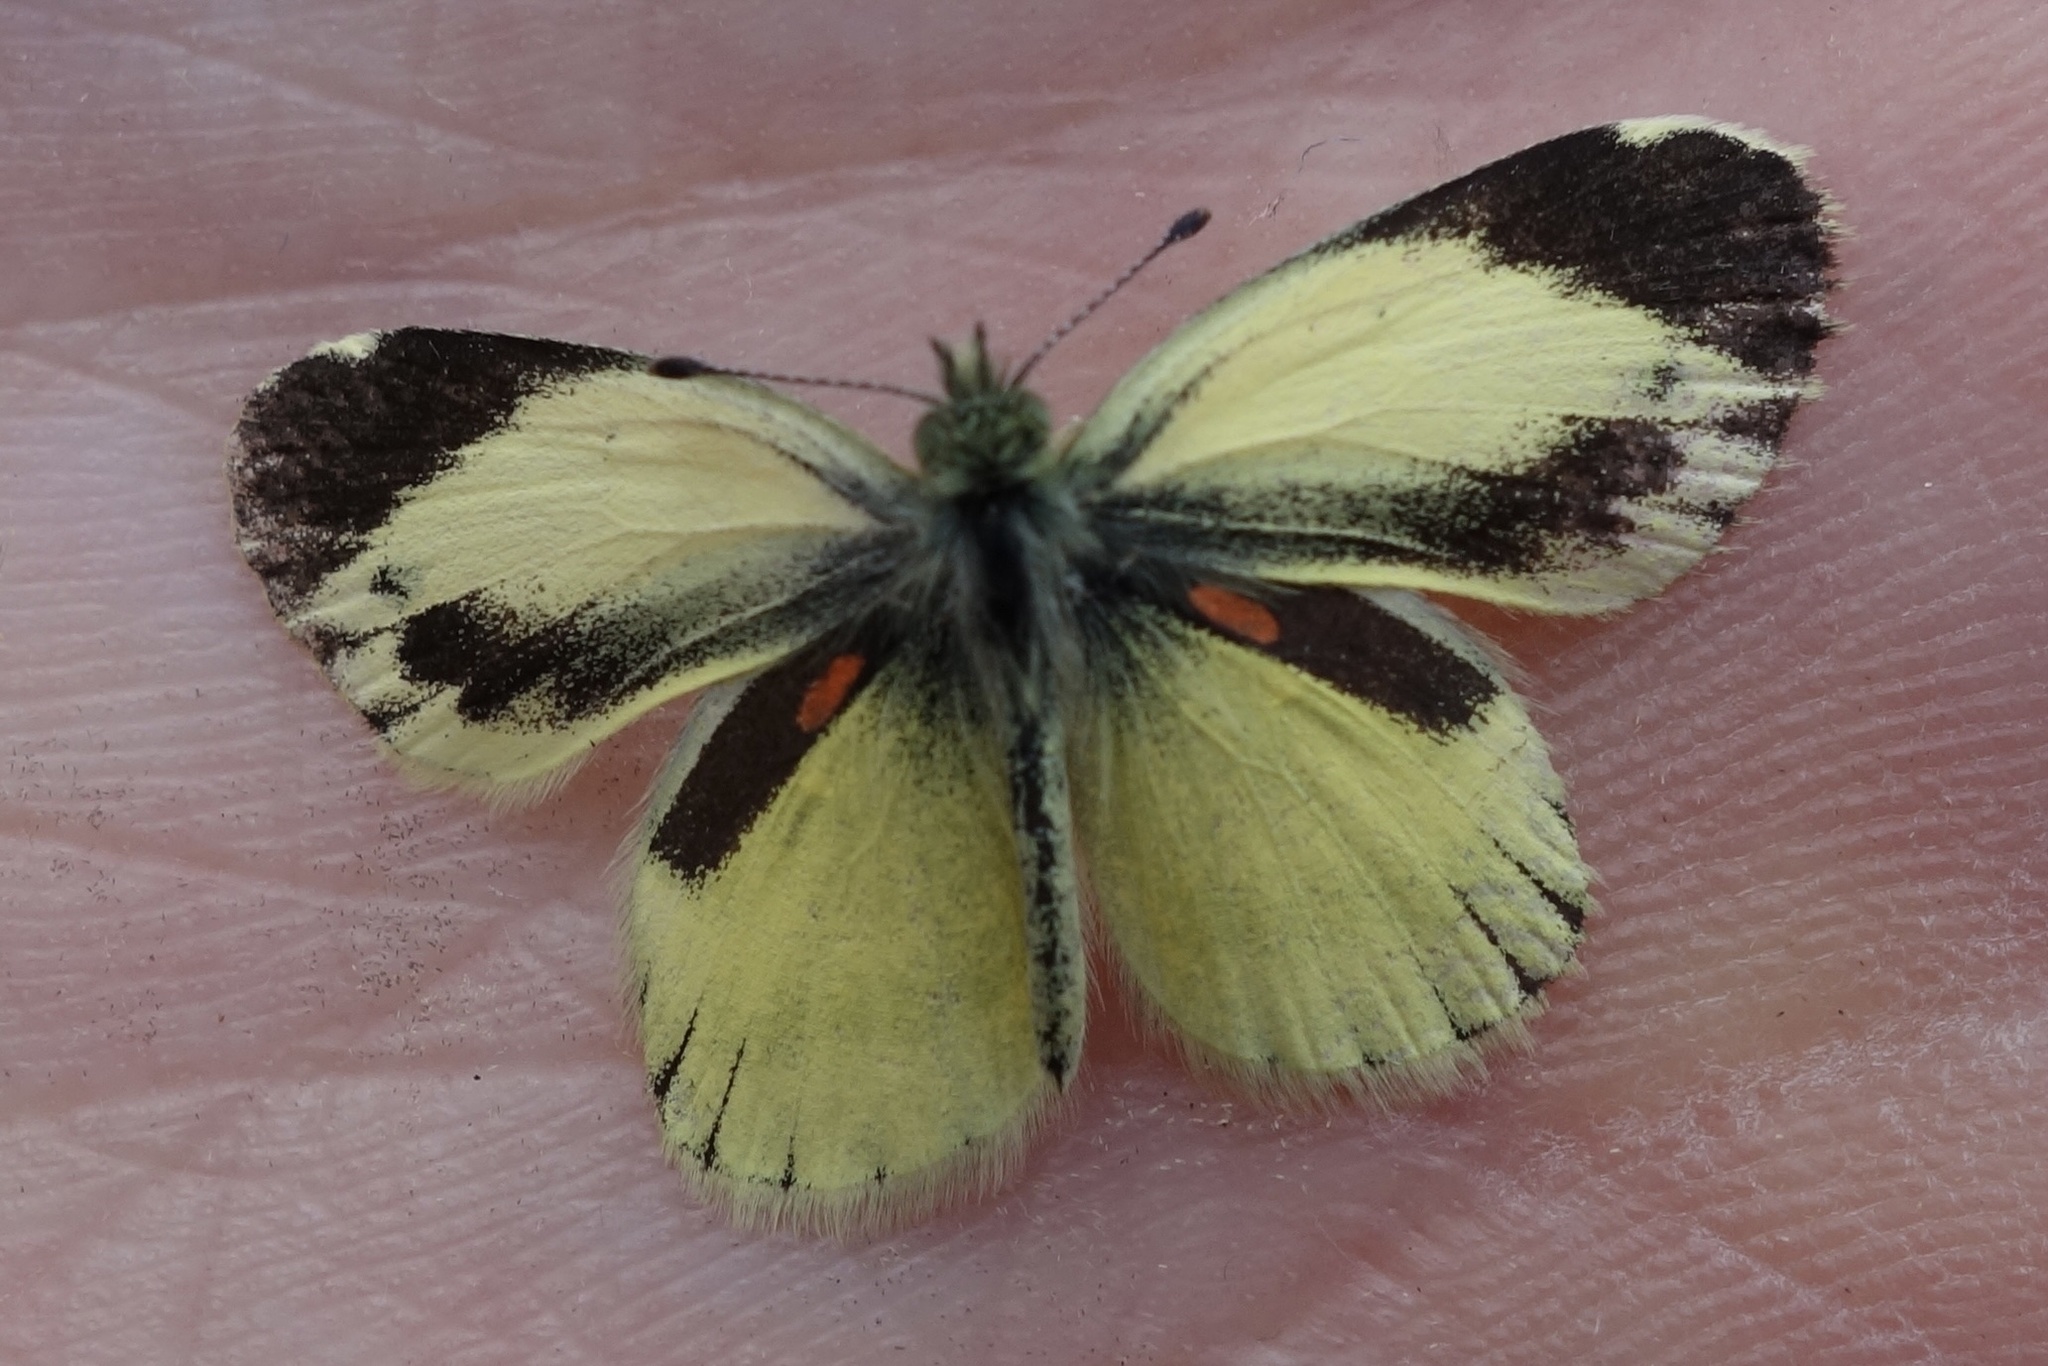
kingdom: Animalia
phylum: Arthropoda
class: Insecta
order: Lepidoptera
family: Pieridae
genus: Nathalis
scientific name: Nathalis iole
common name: Dainty sulphur
